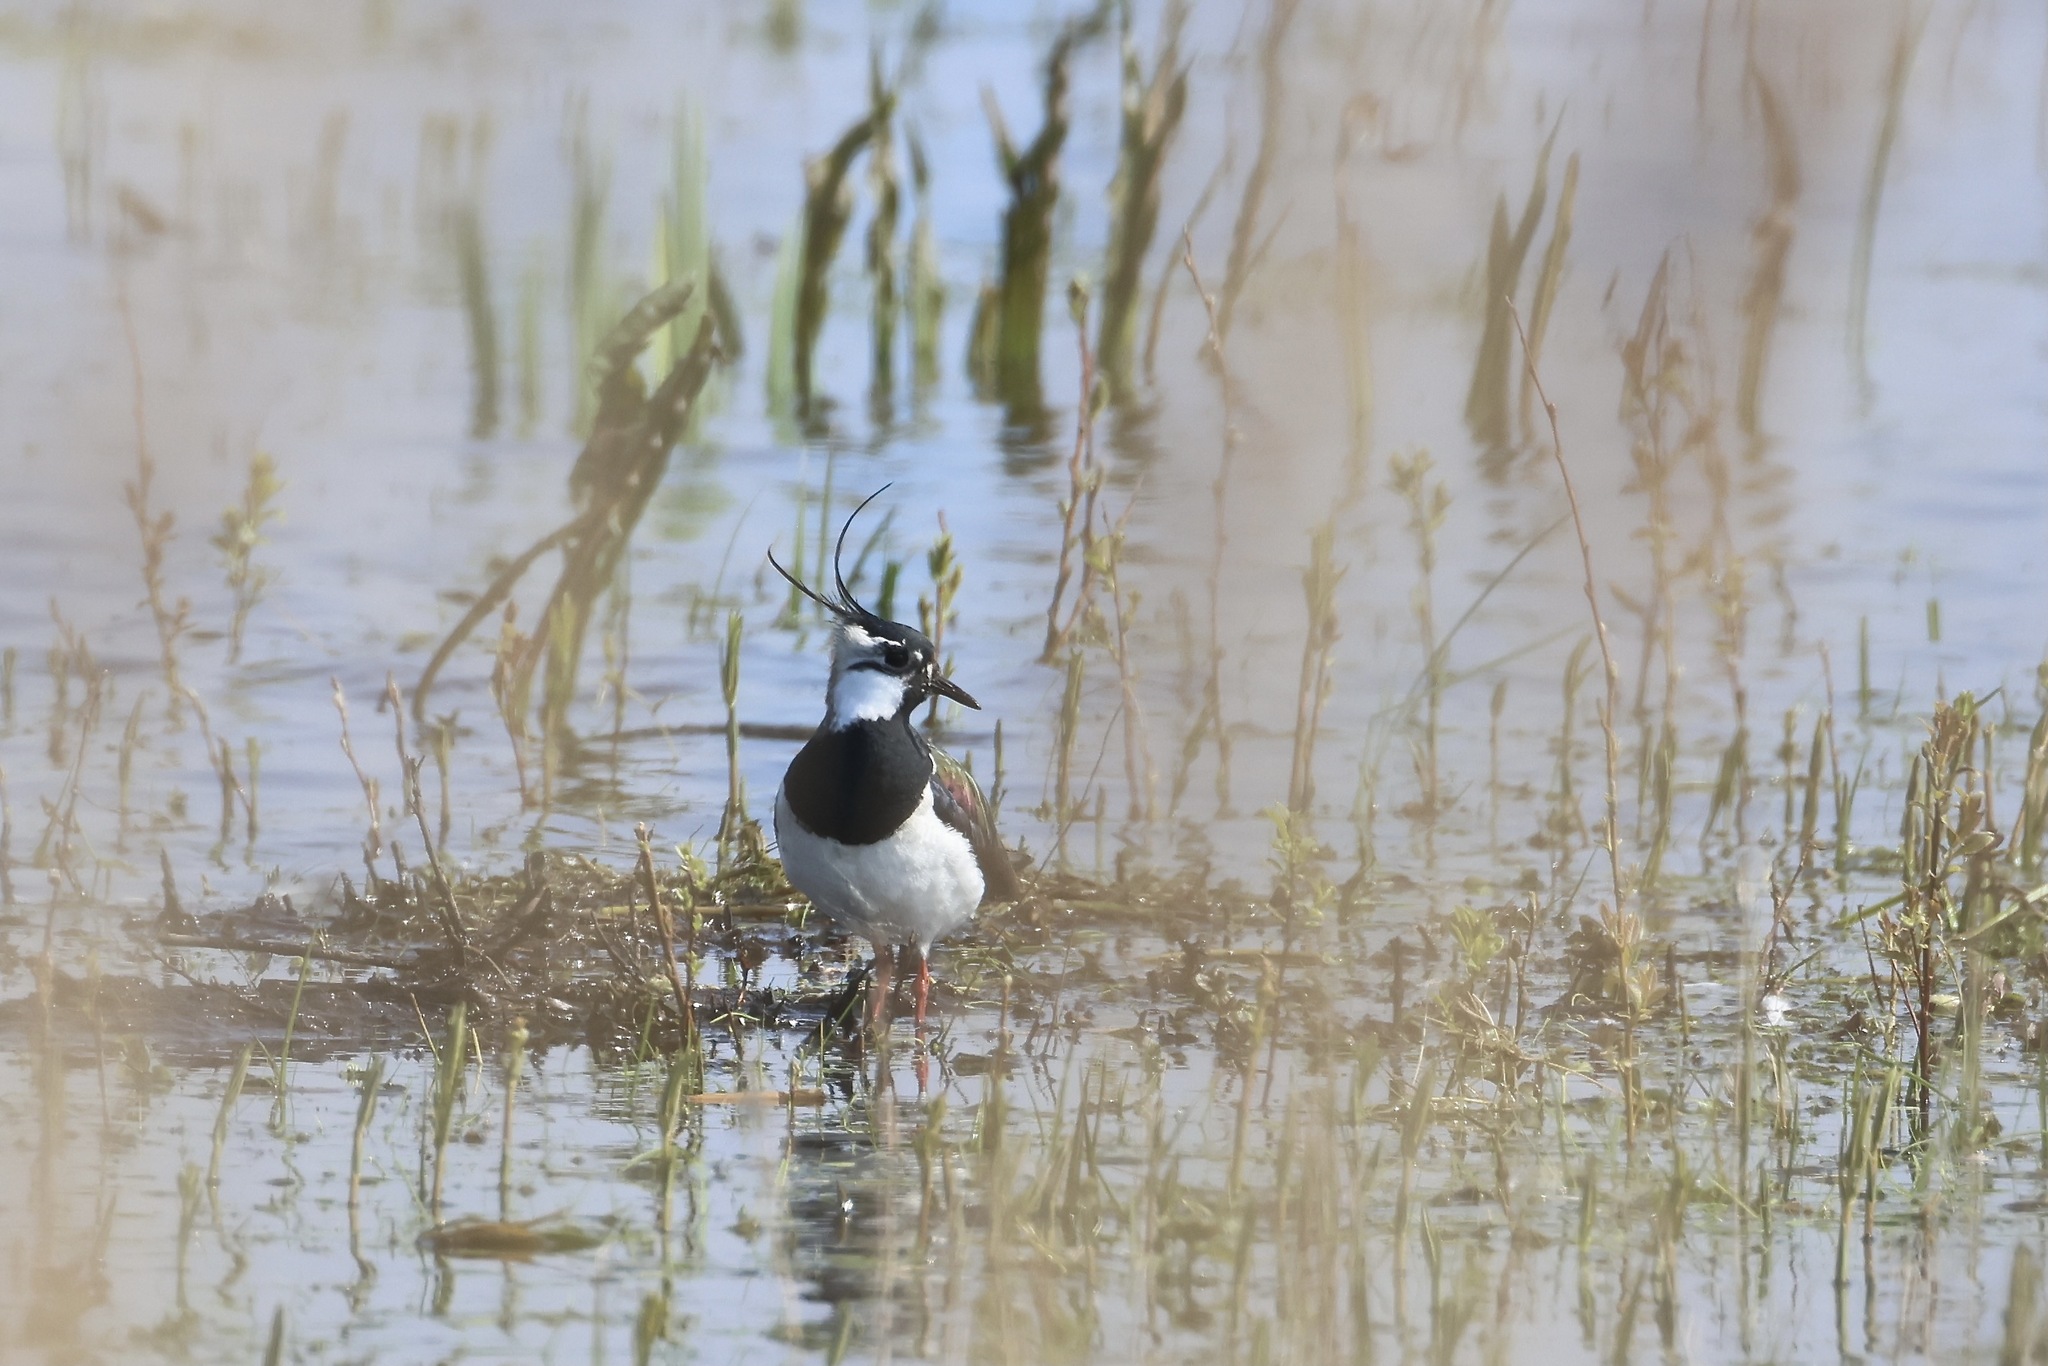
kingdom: Animalia
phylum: Chordata
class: Aves
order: Charadriiformes
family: Charadriidae
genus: Vanellus
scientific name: Vanellus vanellus
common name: Northern lapwing
